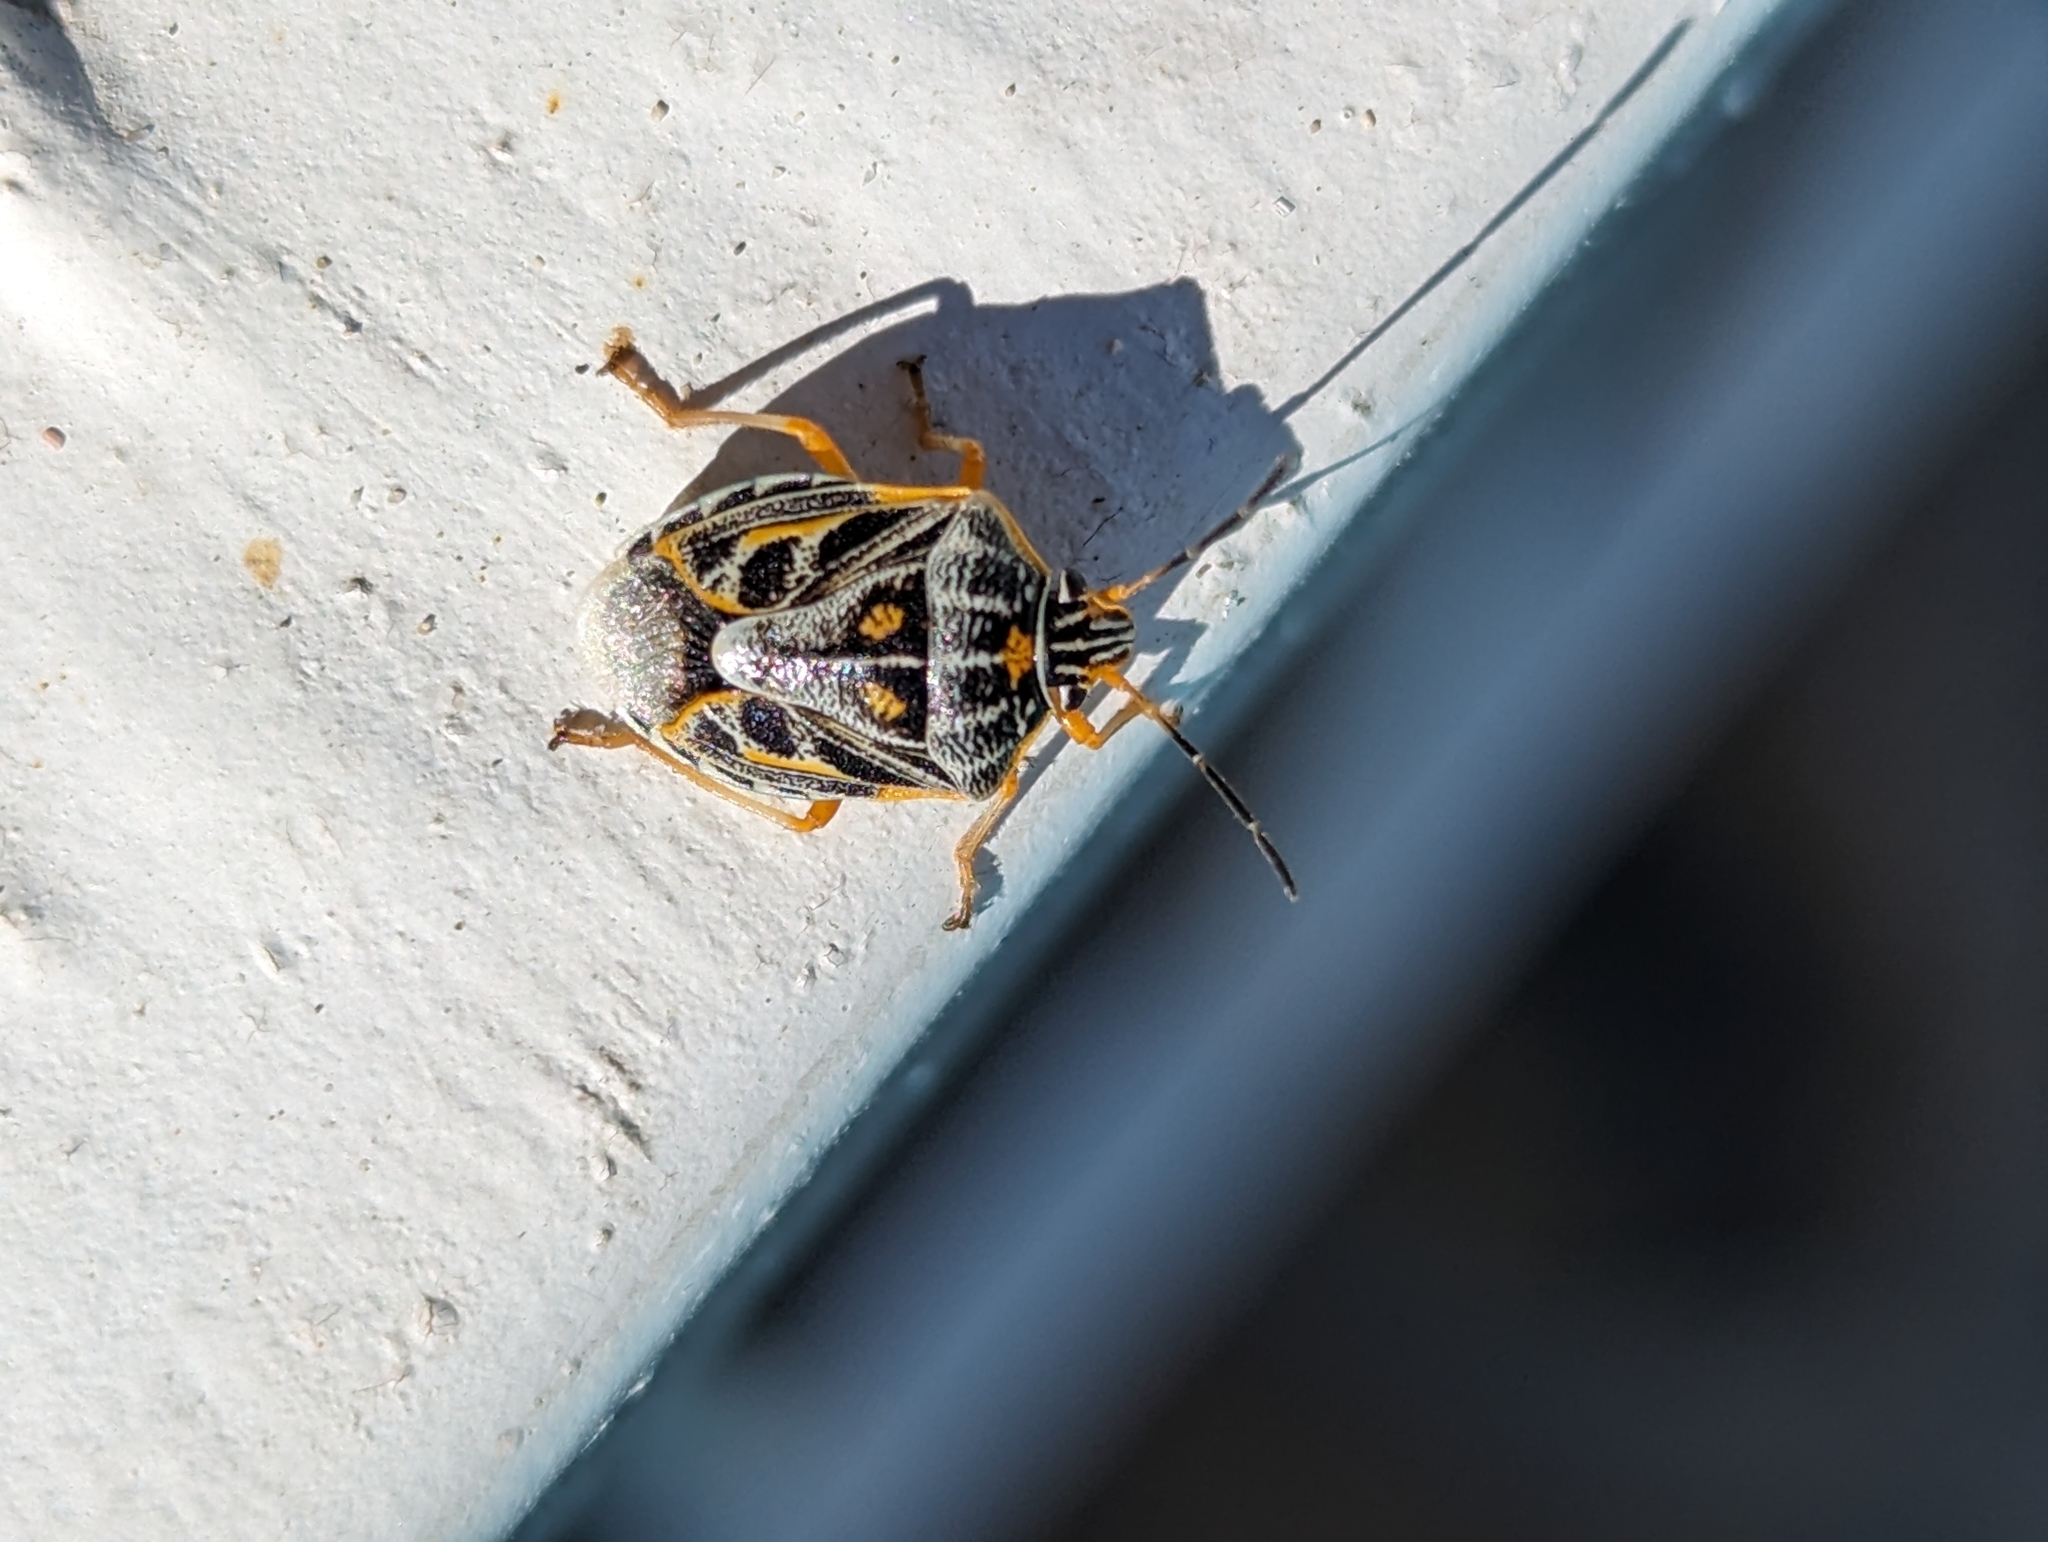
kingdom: Animalia
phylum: Arthropoda
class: Insecta
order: Hemiptera
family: Pentatomidae
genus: Antestiopsis
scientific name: Antestiopsis thunbergii
